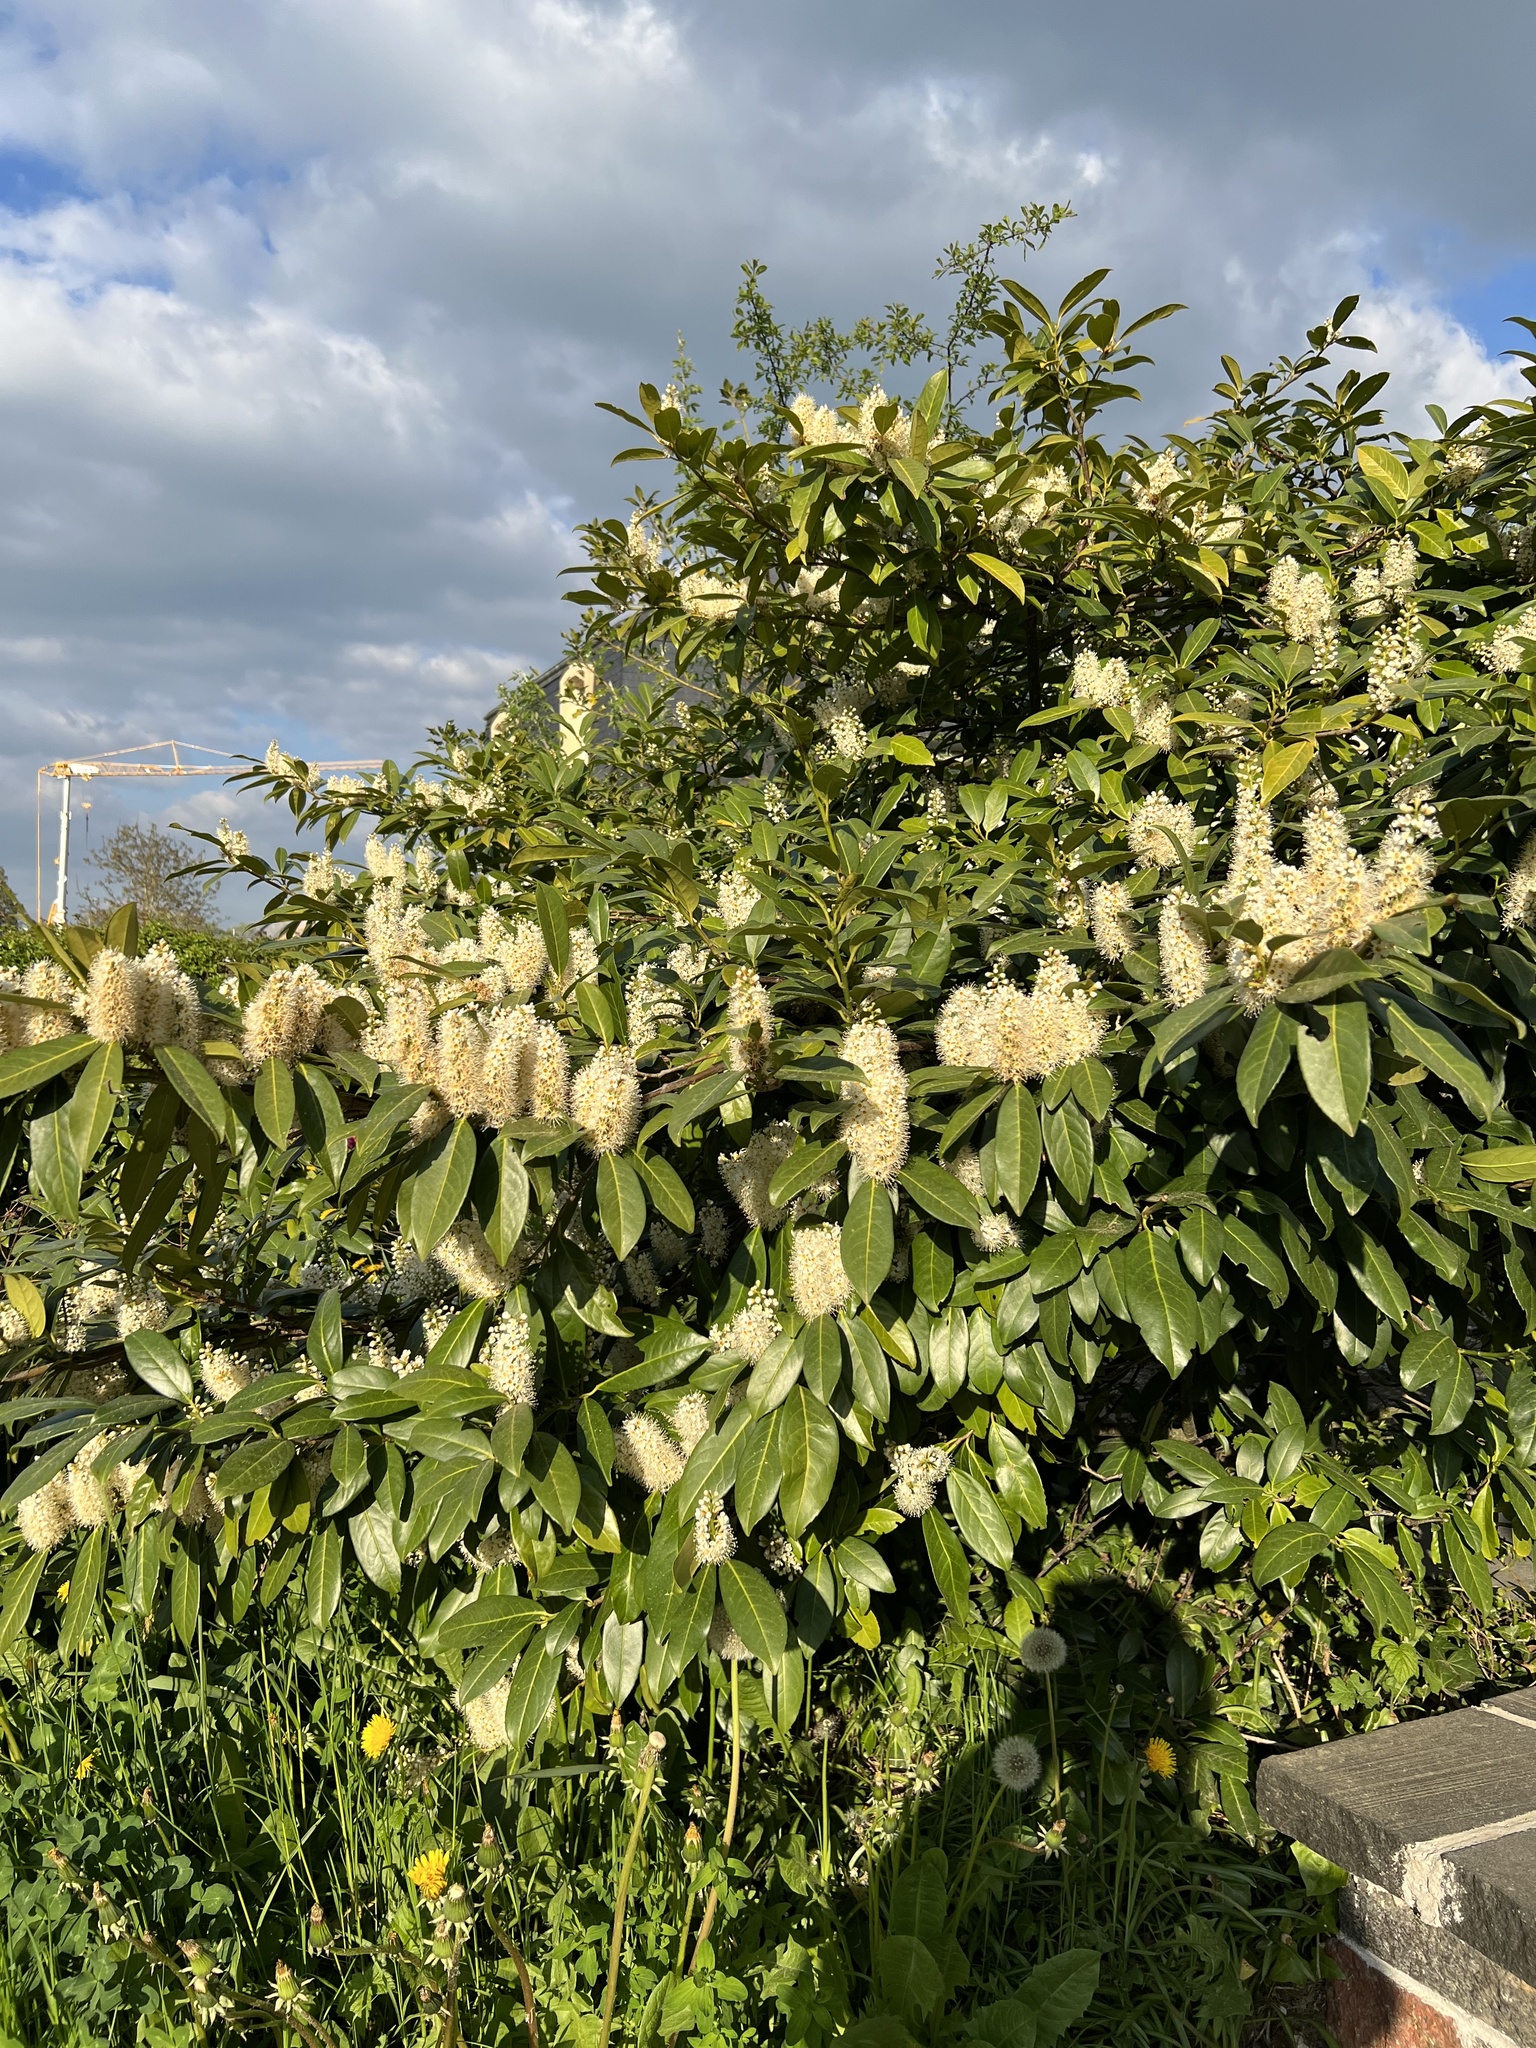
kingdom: Plantae
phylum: Tracheophyta
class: Magnoliopsida
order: Rosales
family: Rosaceae
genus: Prunus
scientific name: Prunus laurocerasus
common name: Cherry laurel
